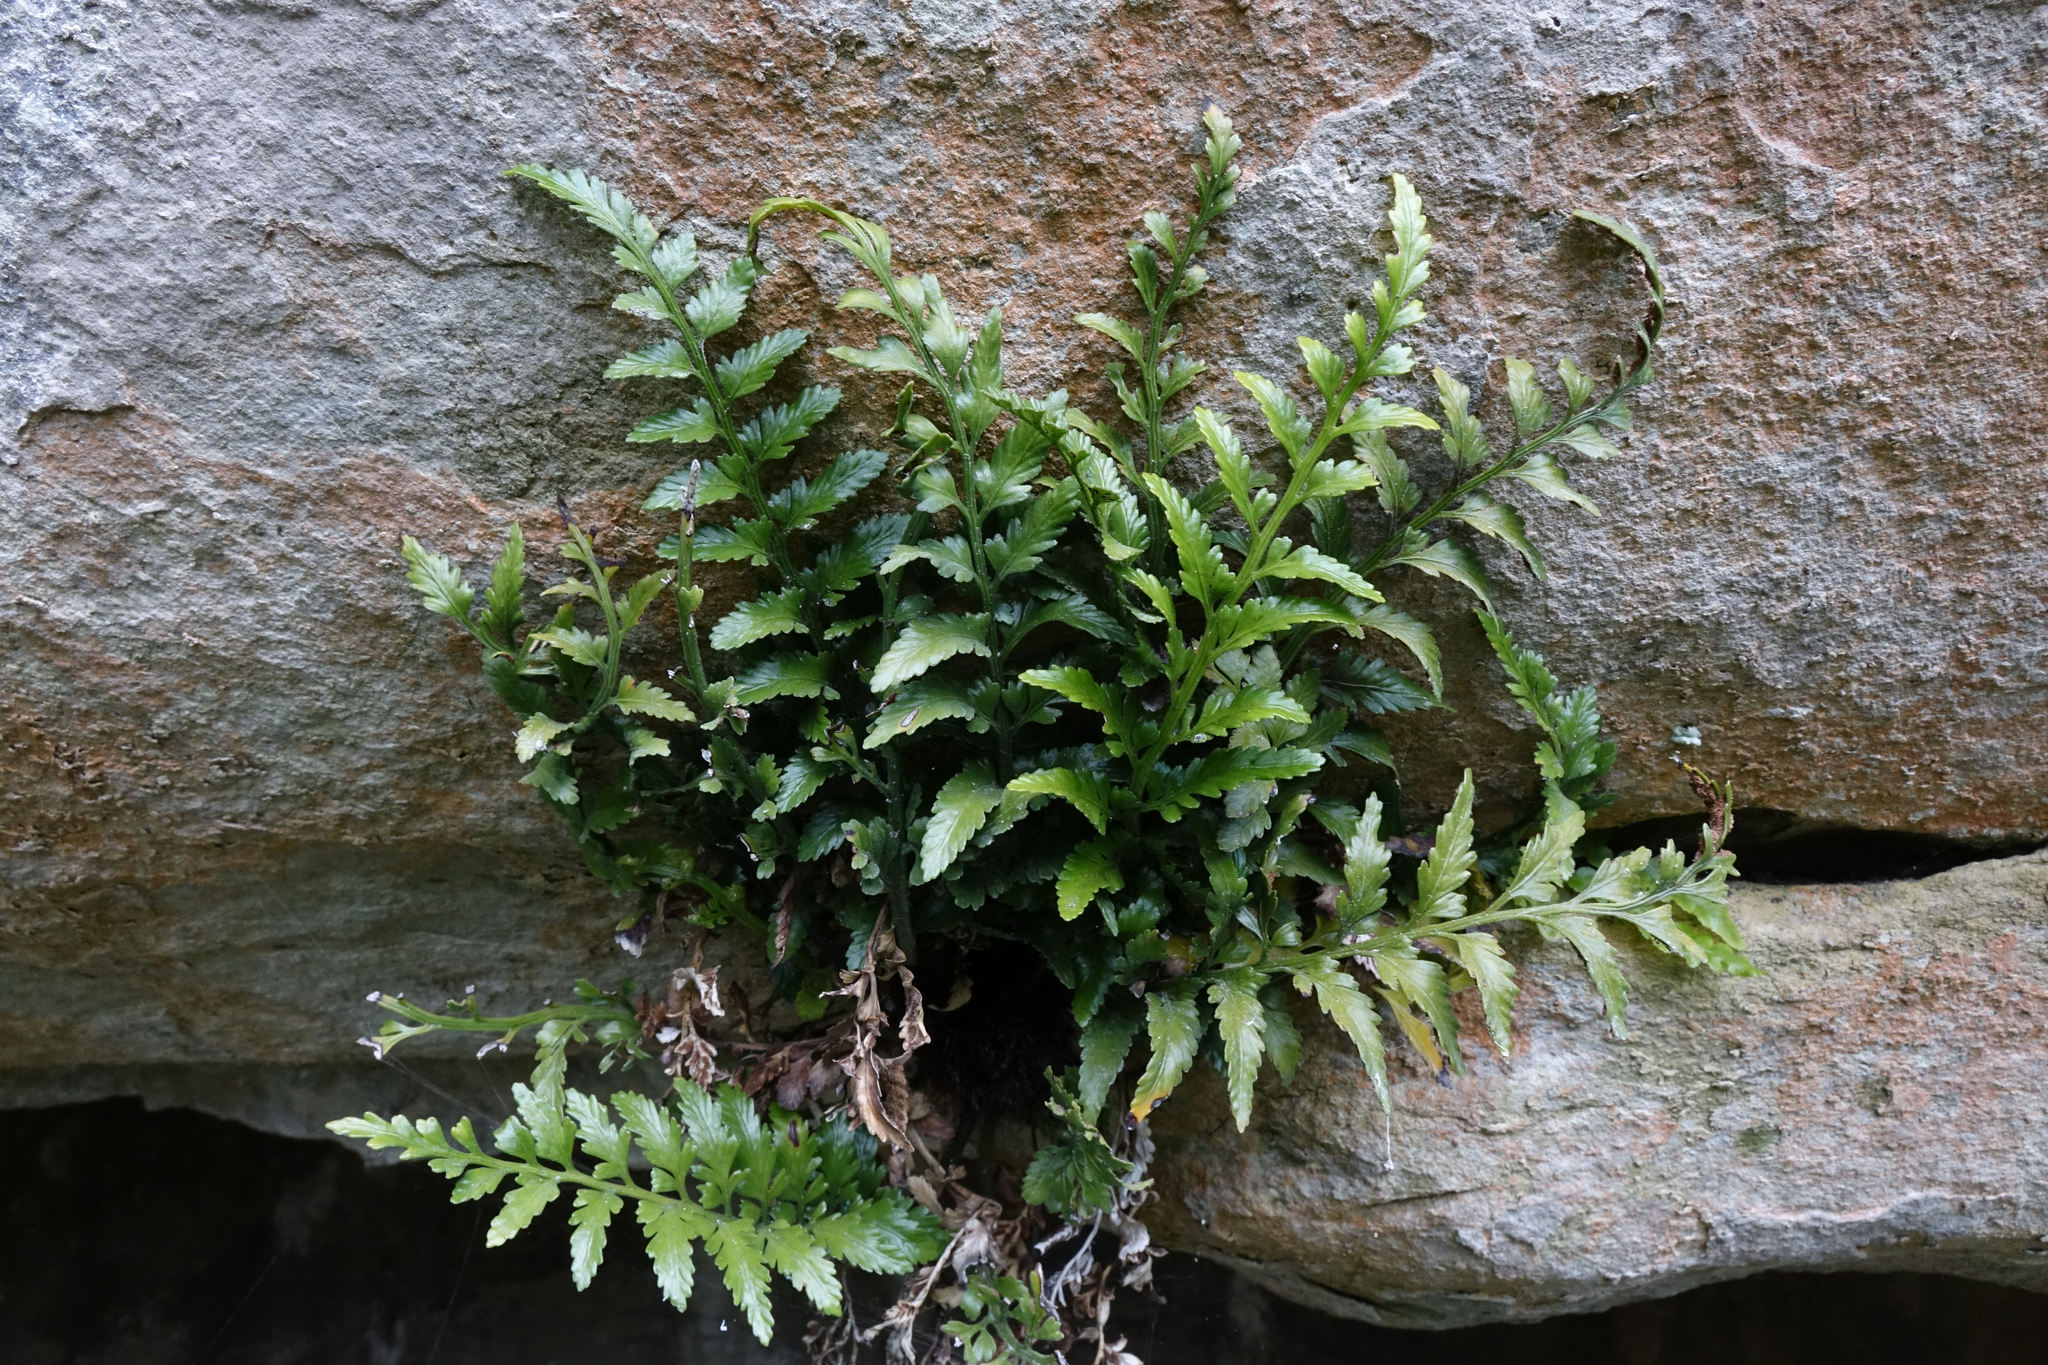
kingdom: Plantae
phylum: Tracheophyta
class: Polypodiopsida
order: Polypodiales
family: Aspleniaceae
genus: Asplenium
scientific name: Asplenium lyallii
